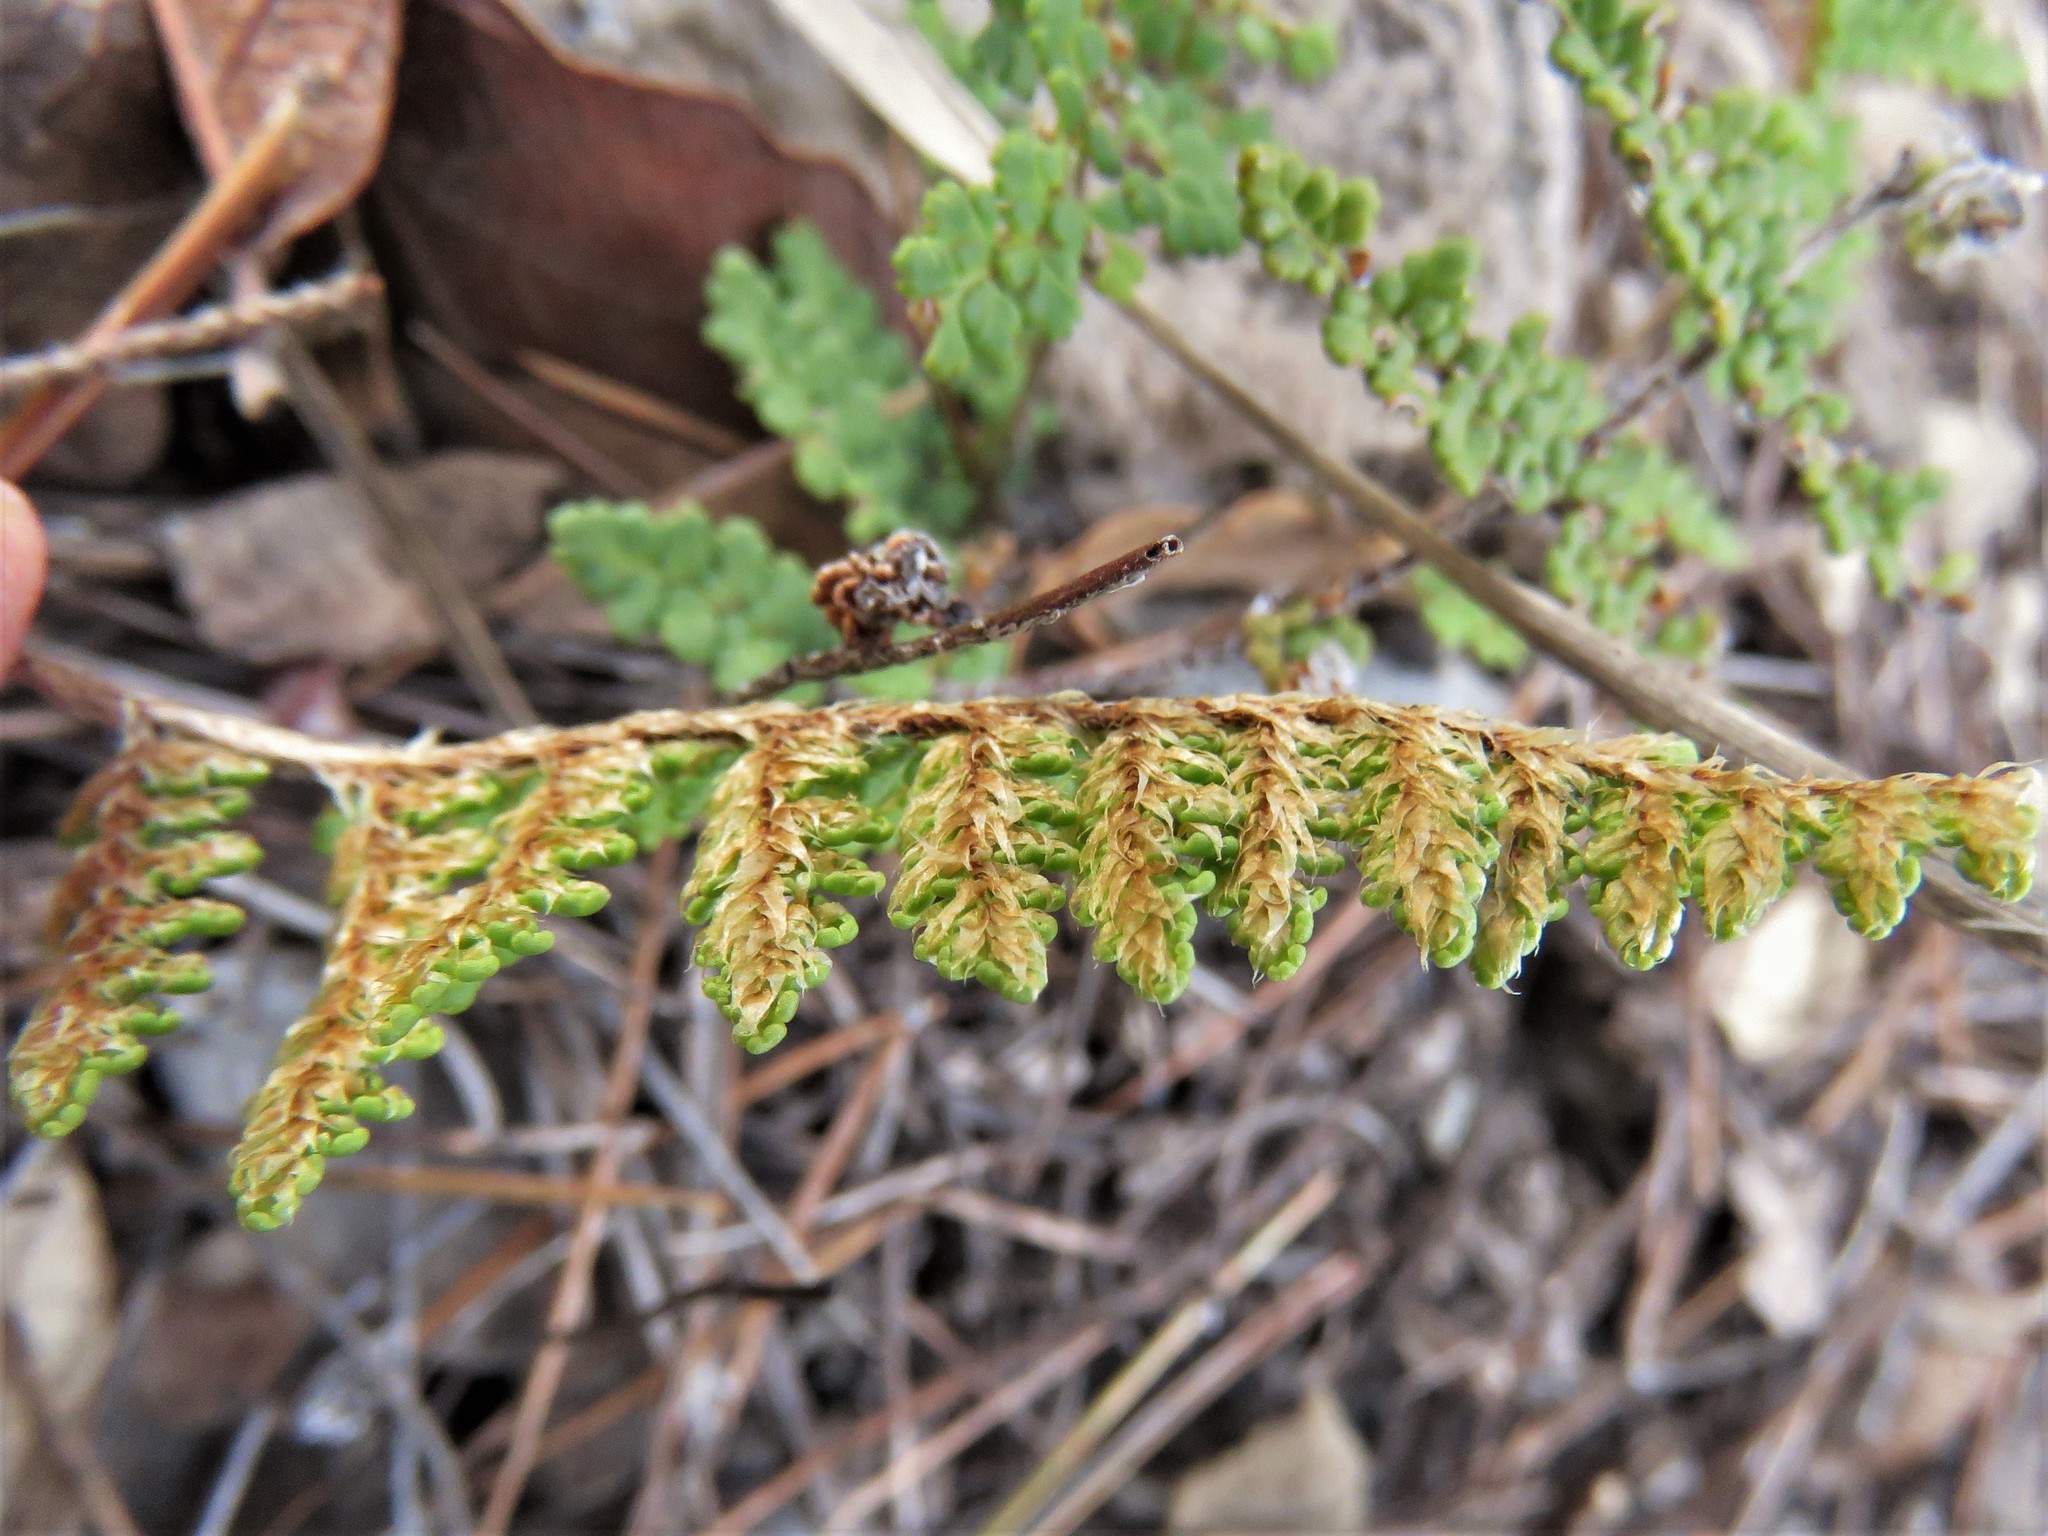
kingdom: Plantae
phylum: Tracheophyta
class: Polypodiopsida
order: Polypodiales
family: Pteridaceae
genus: Myriopteris
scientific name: Myriopteris fendleri
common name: Fendler's lip fern
